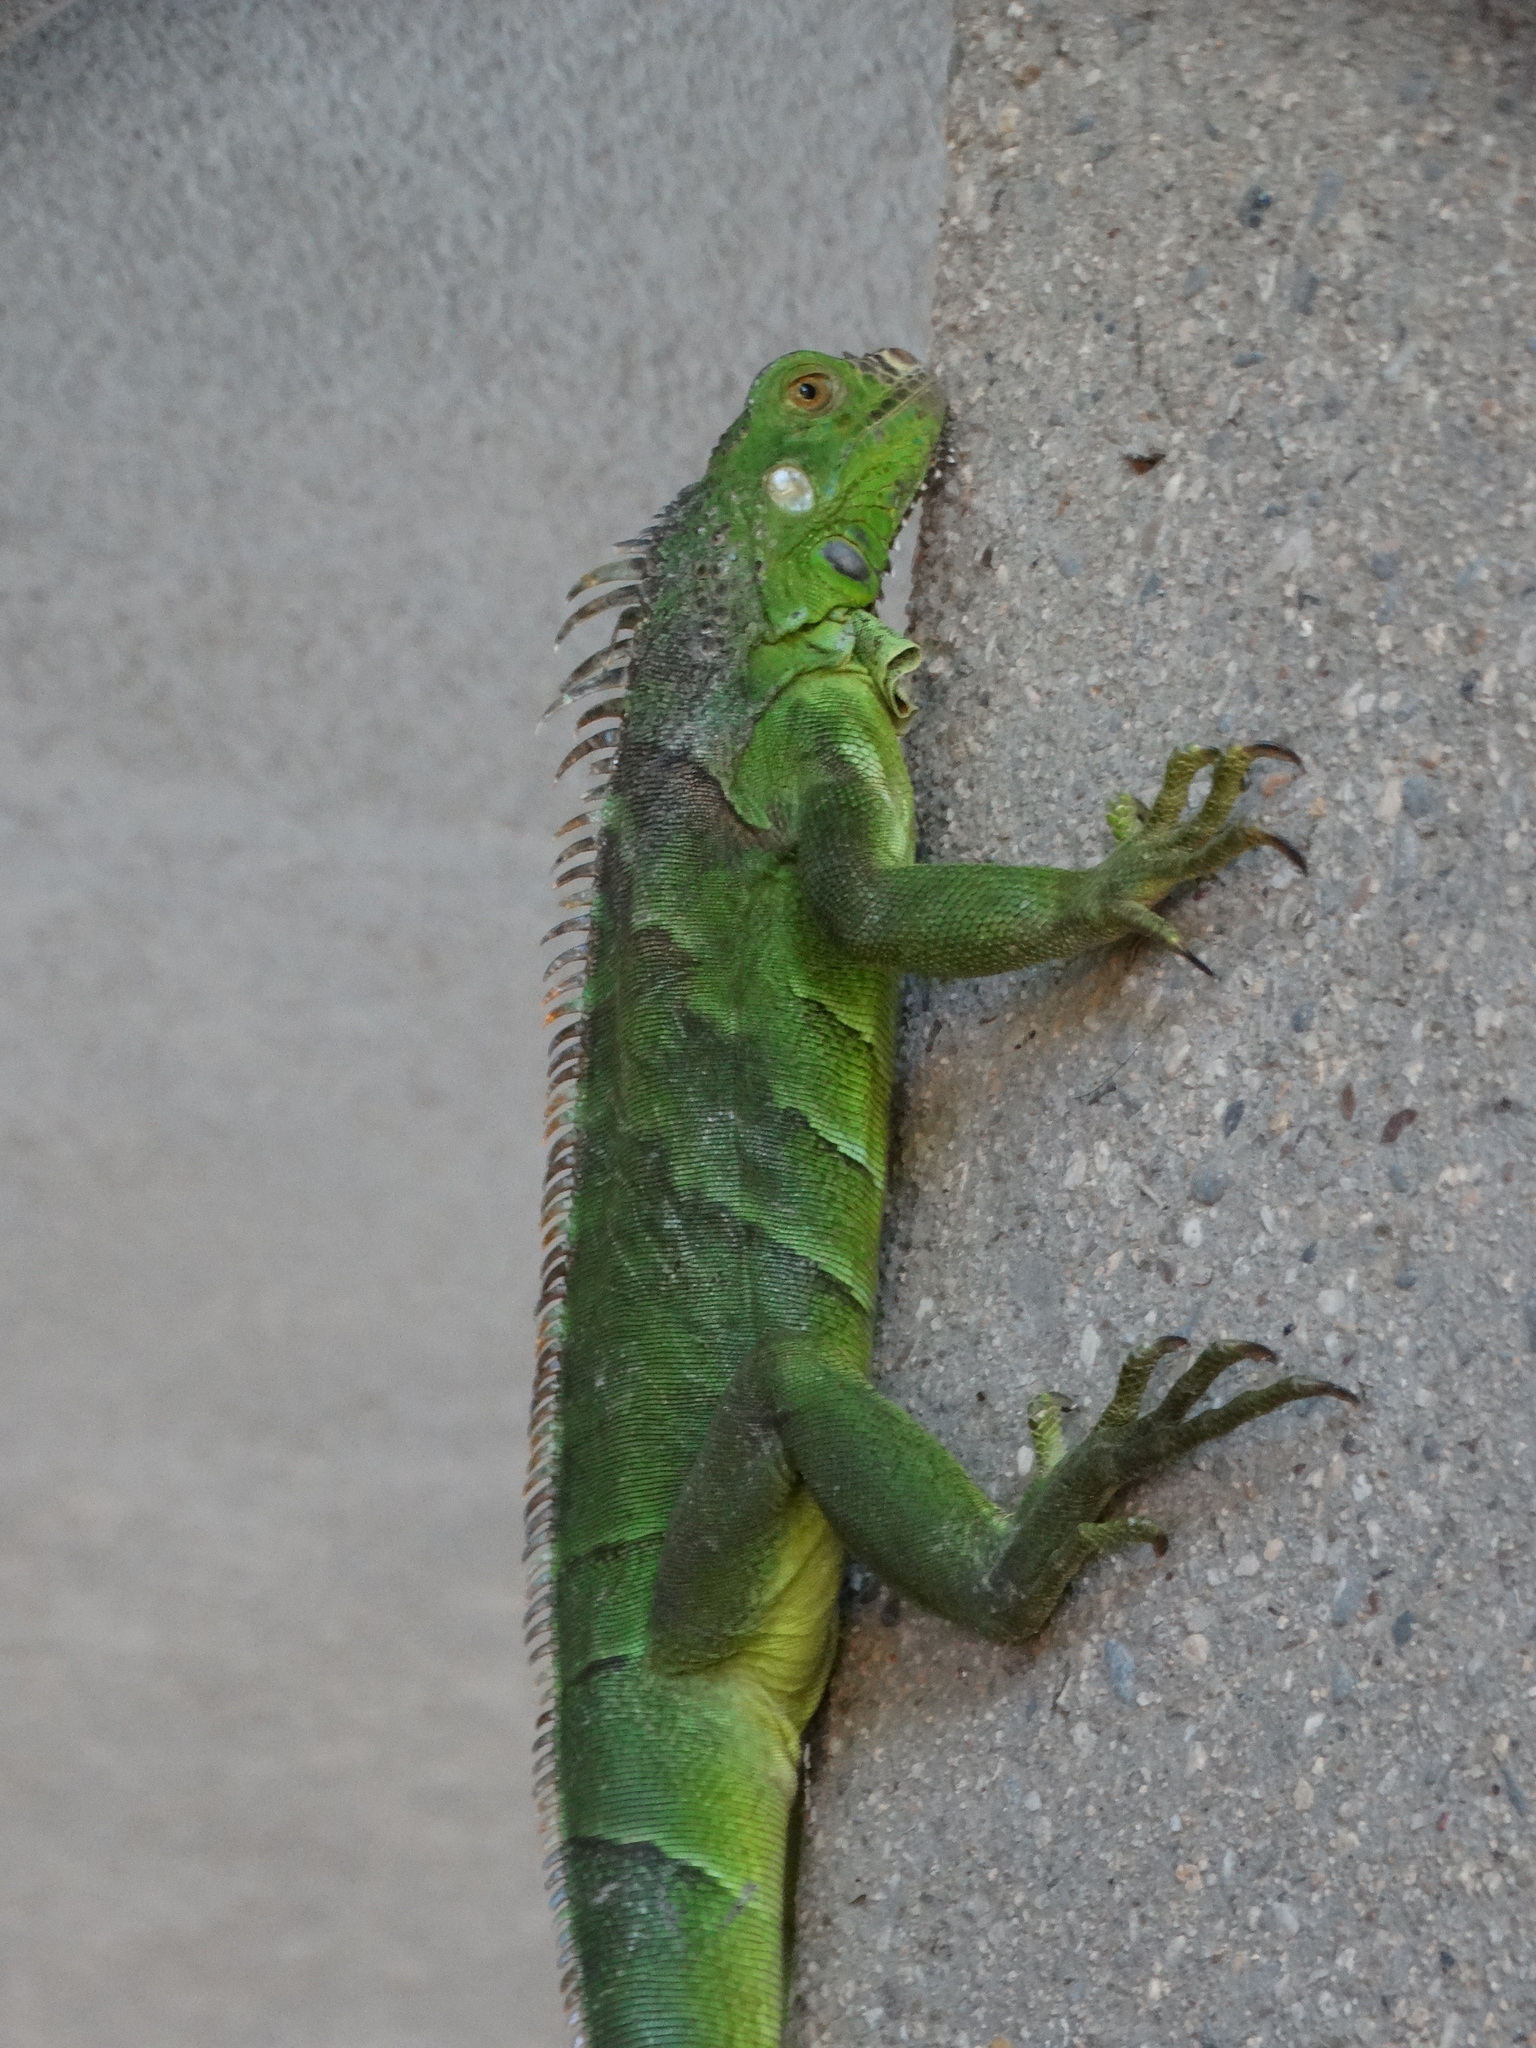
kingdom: Animalia
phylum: Chordata
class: Squamata
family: Iguanidae
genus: Iguana
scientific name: Iguana iguana
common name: Green iguana
